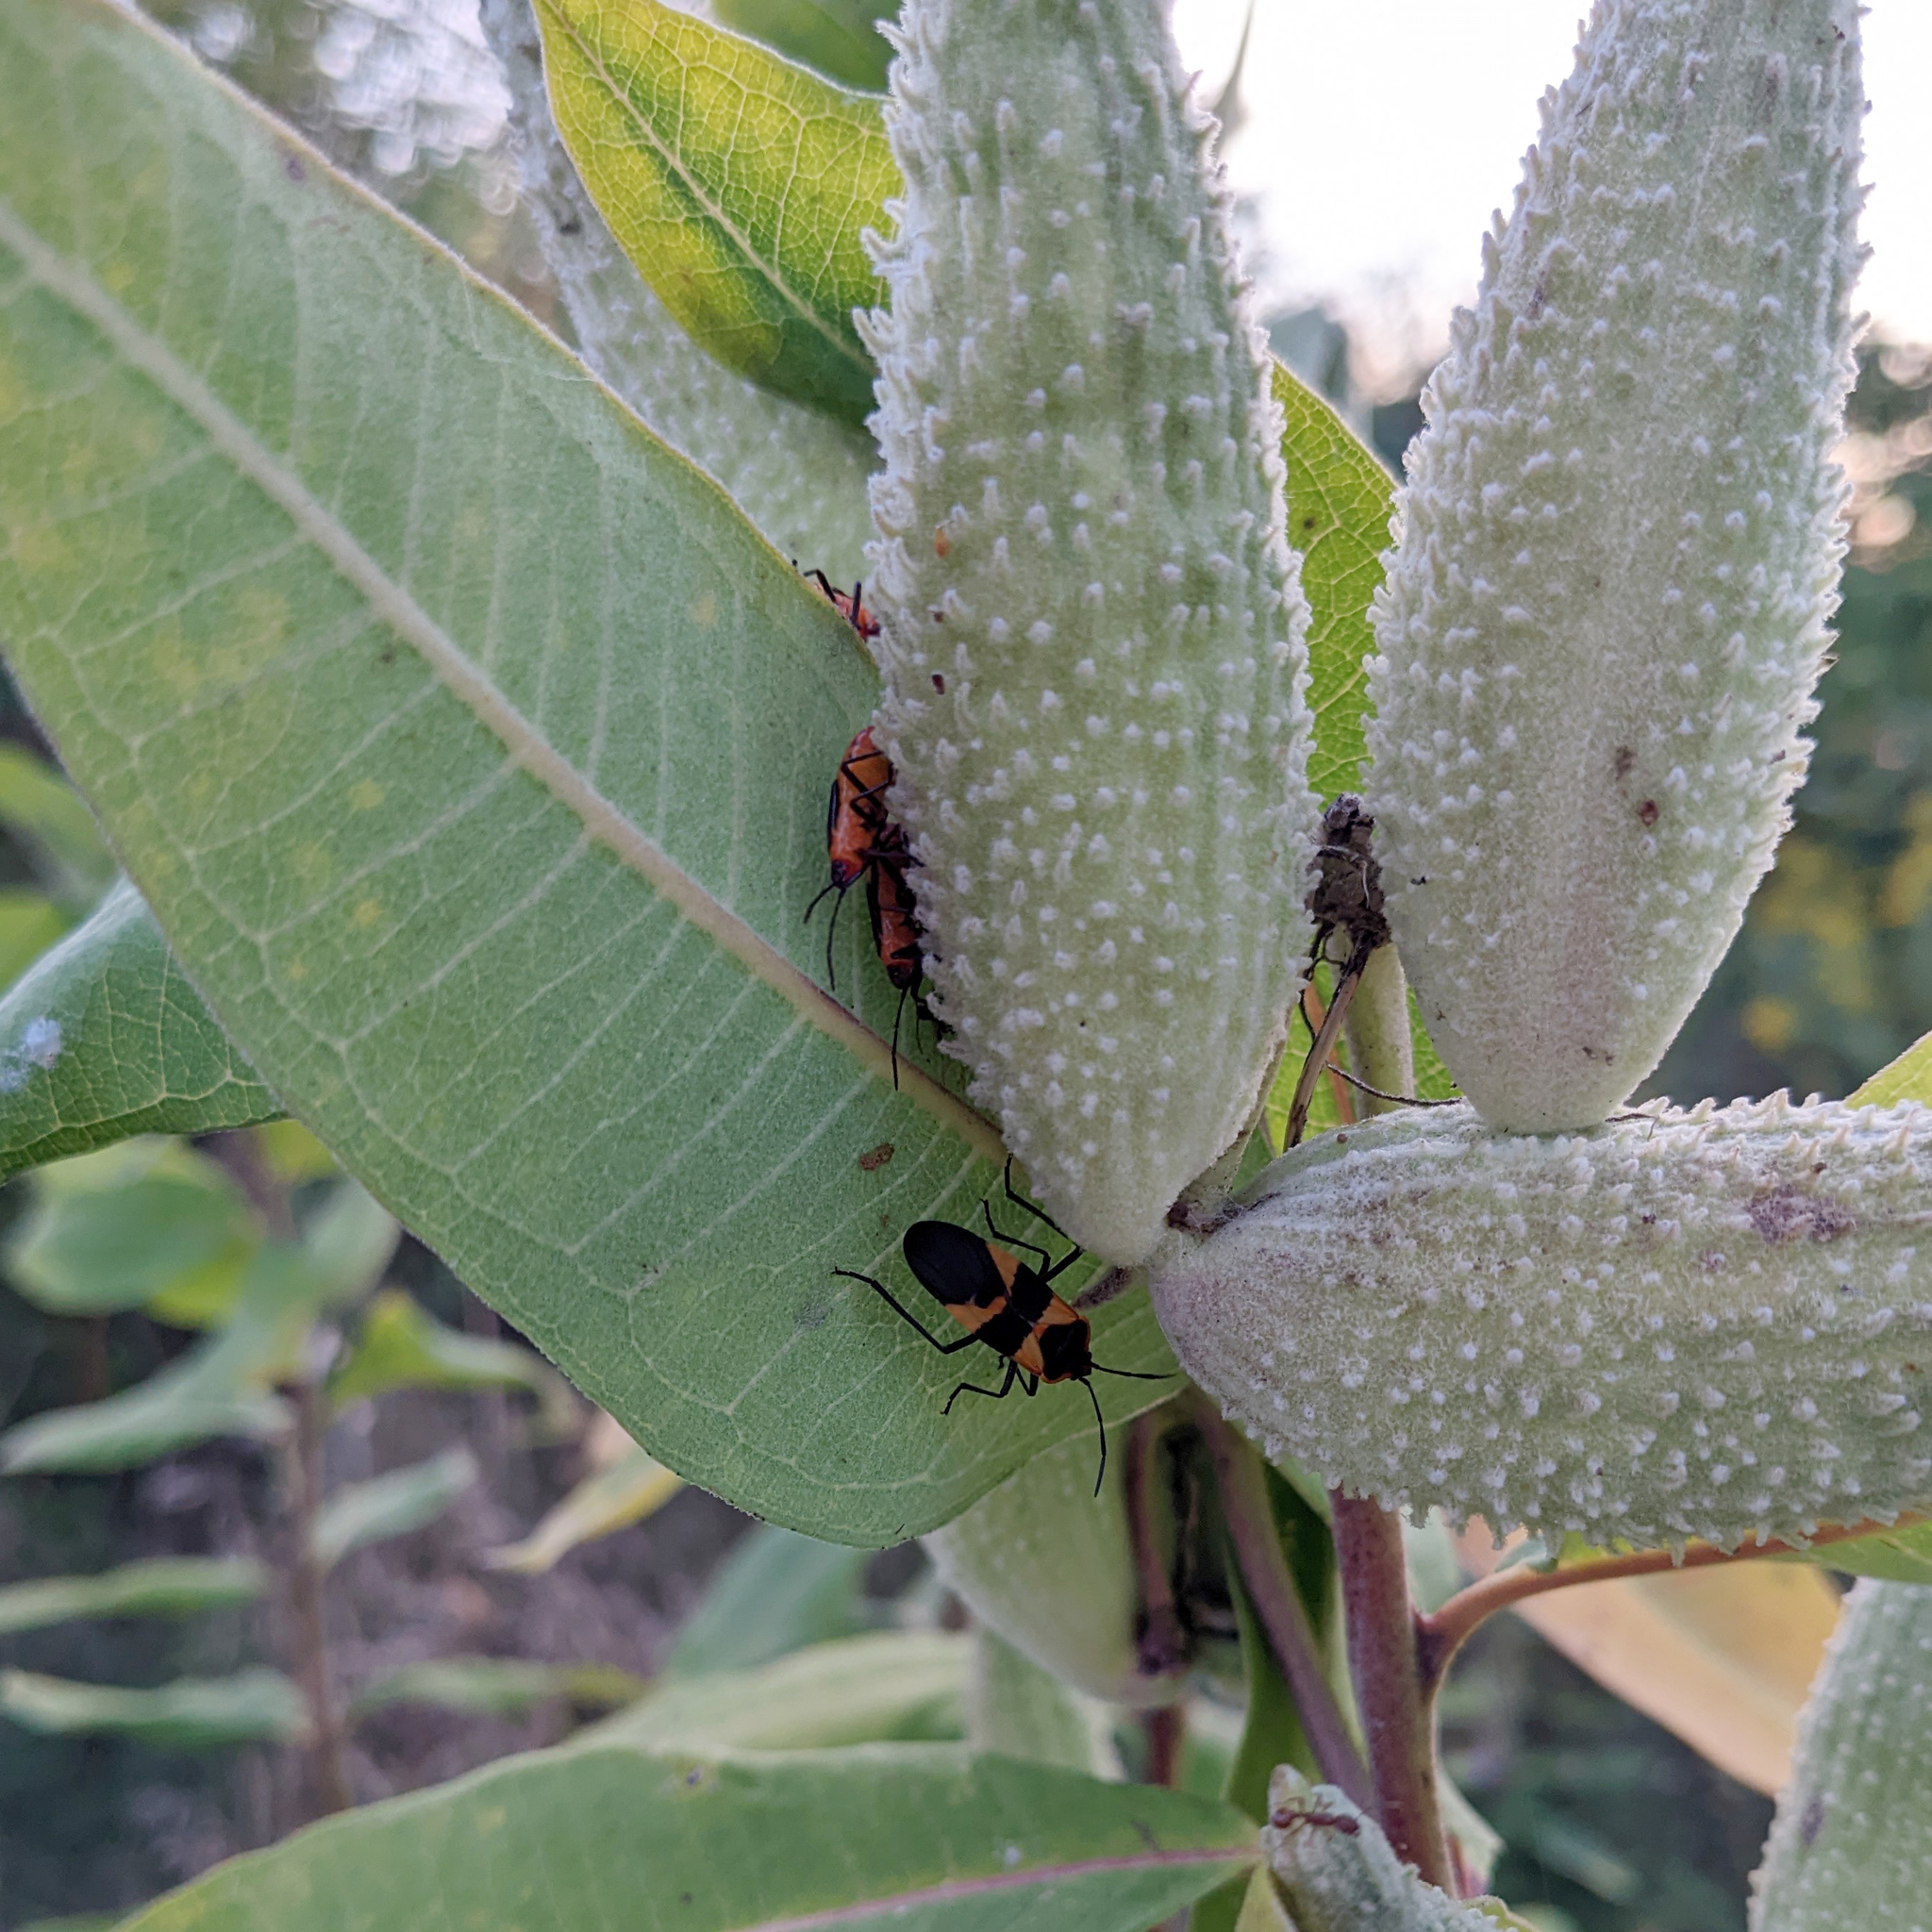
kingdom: Animalia
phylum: Arthropoda
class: Insecta
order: Hemiptera
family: Lygaeidae
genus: Oncopeltus
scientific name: Oncopeltus fasciatus
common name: Large milkweed bug
